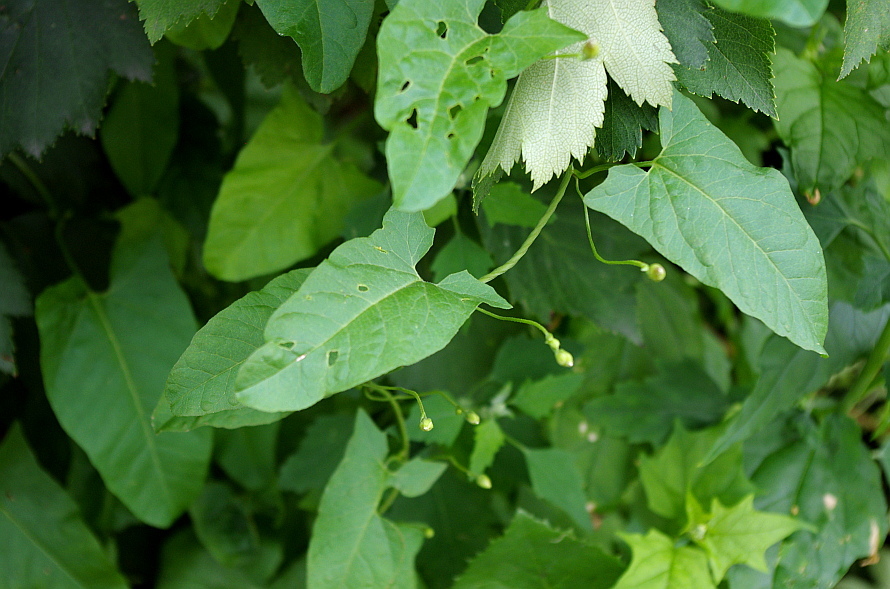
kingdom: Plantae
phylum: Tracheophyta
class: Magnoliopsida
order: Solanales
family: Convolvulaceae
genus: Convolvulus
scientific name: Convolvulus arvensis
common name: Field bindweed
